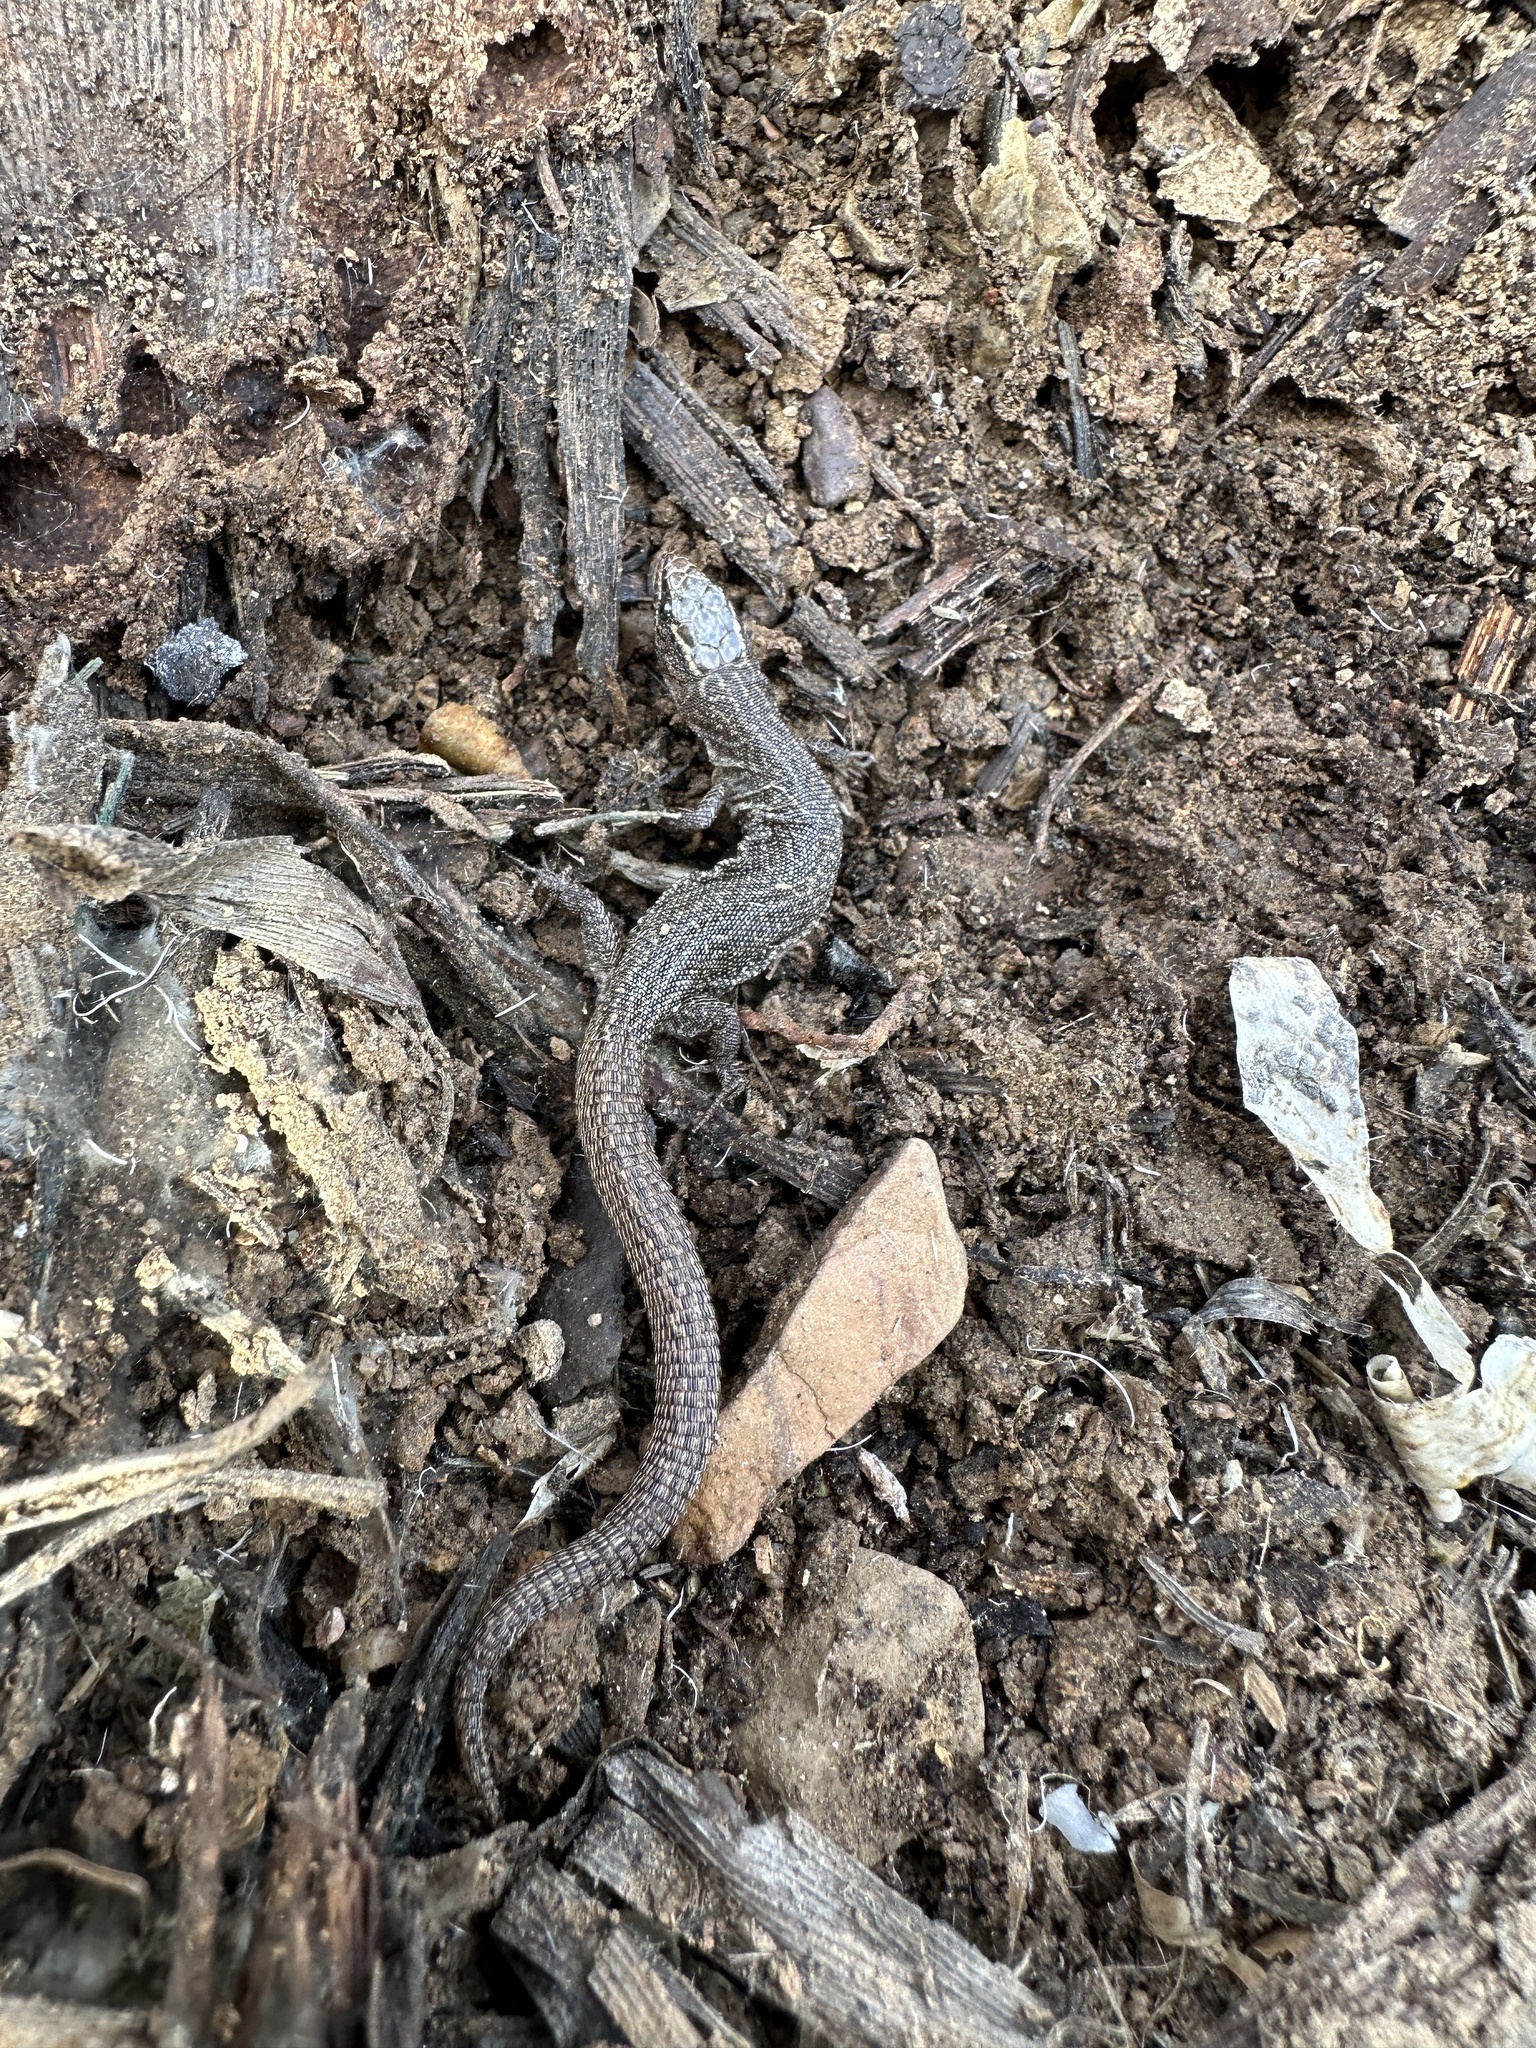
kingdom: Animalia
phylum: Chordata
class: Squamata
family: Xantusiidae
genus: Xantusia
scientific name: Xantusia vigilis
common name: Desert night lizard
